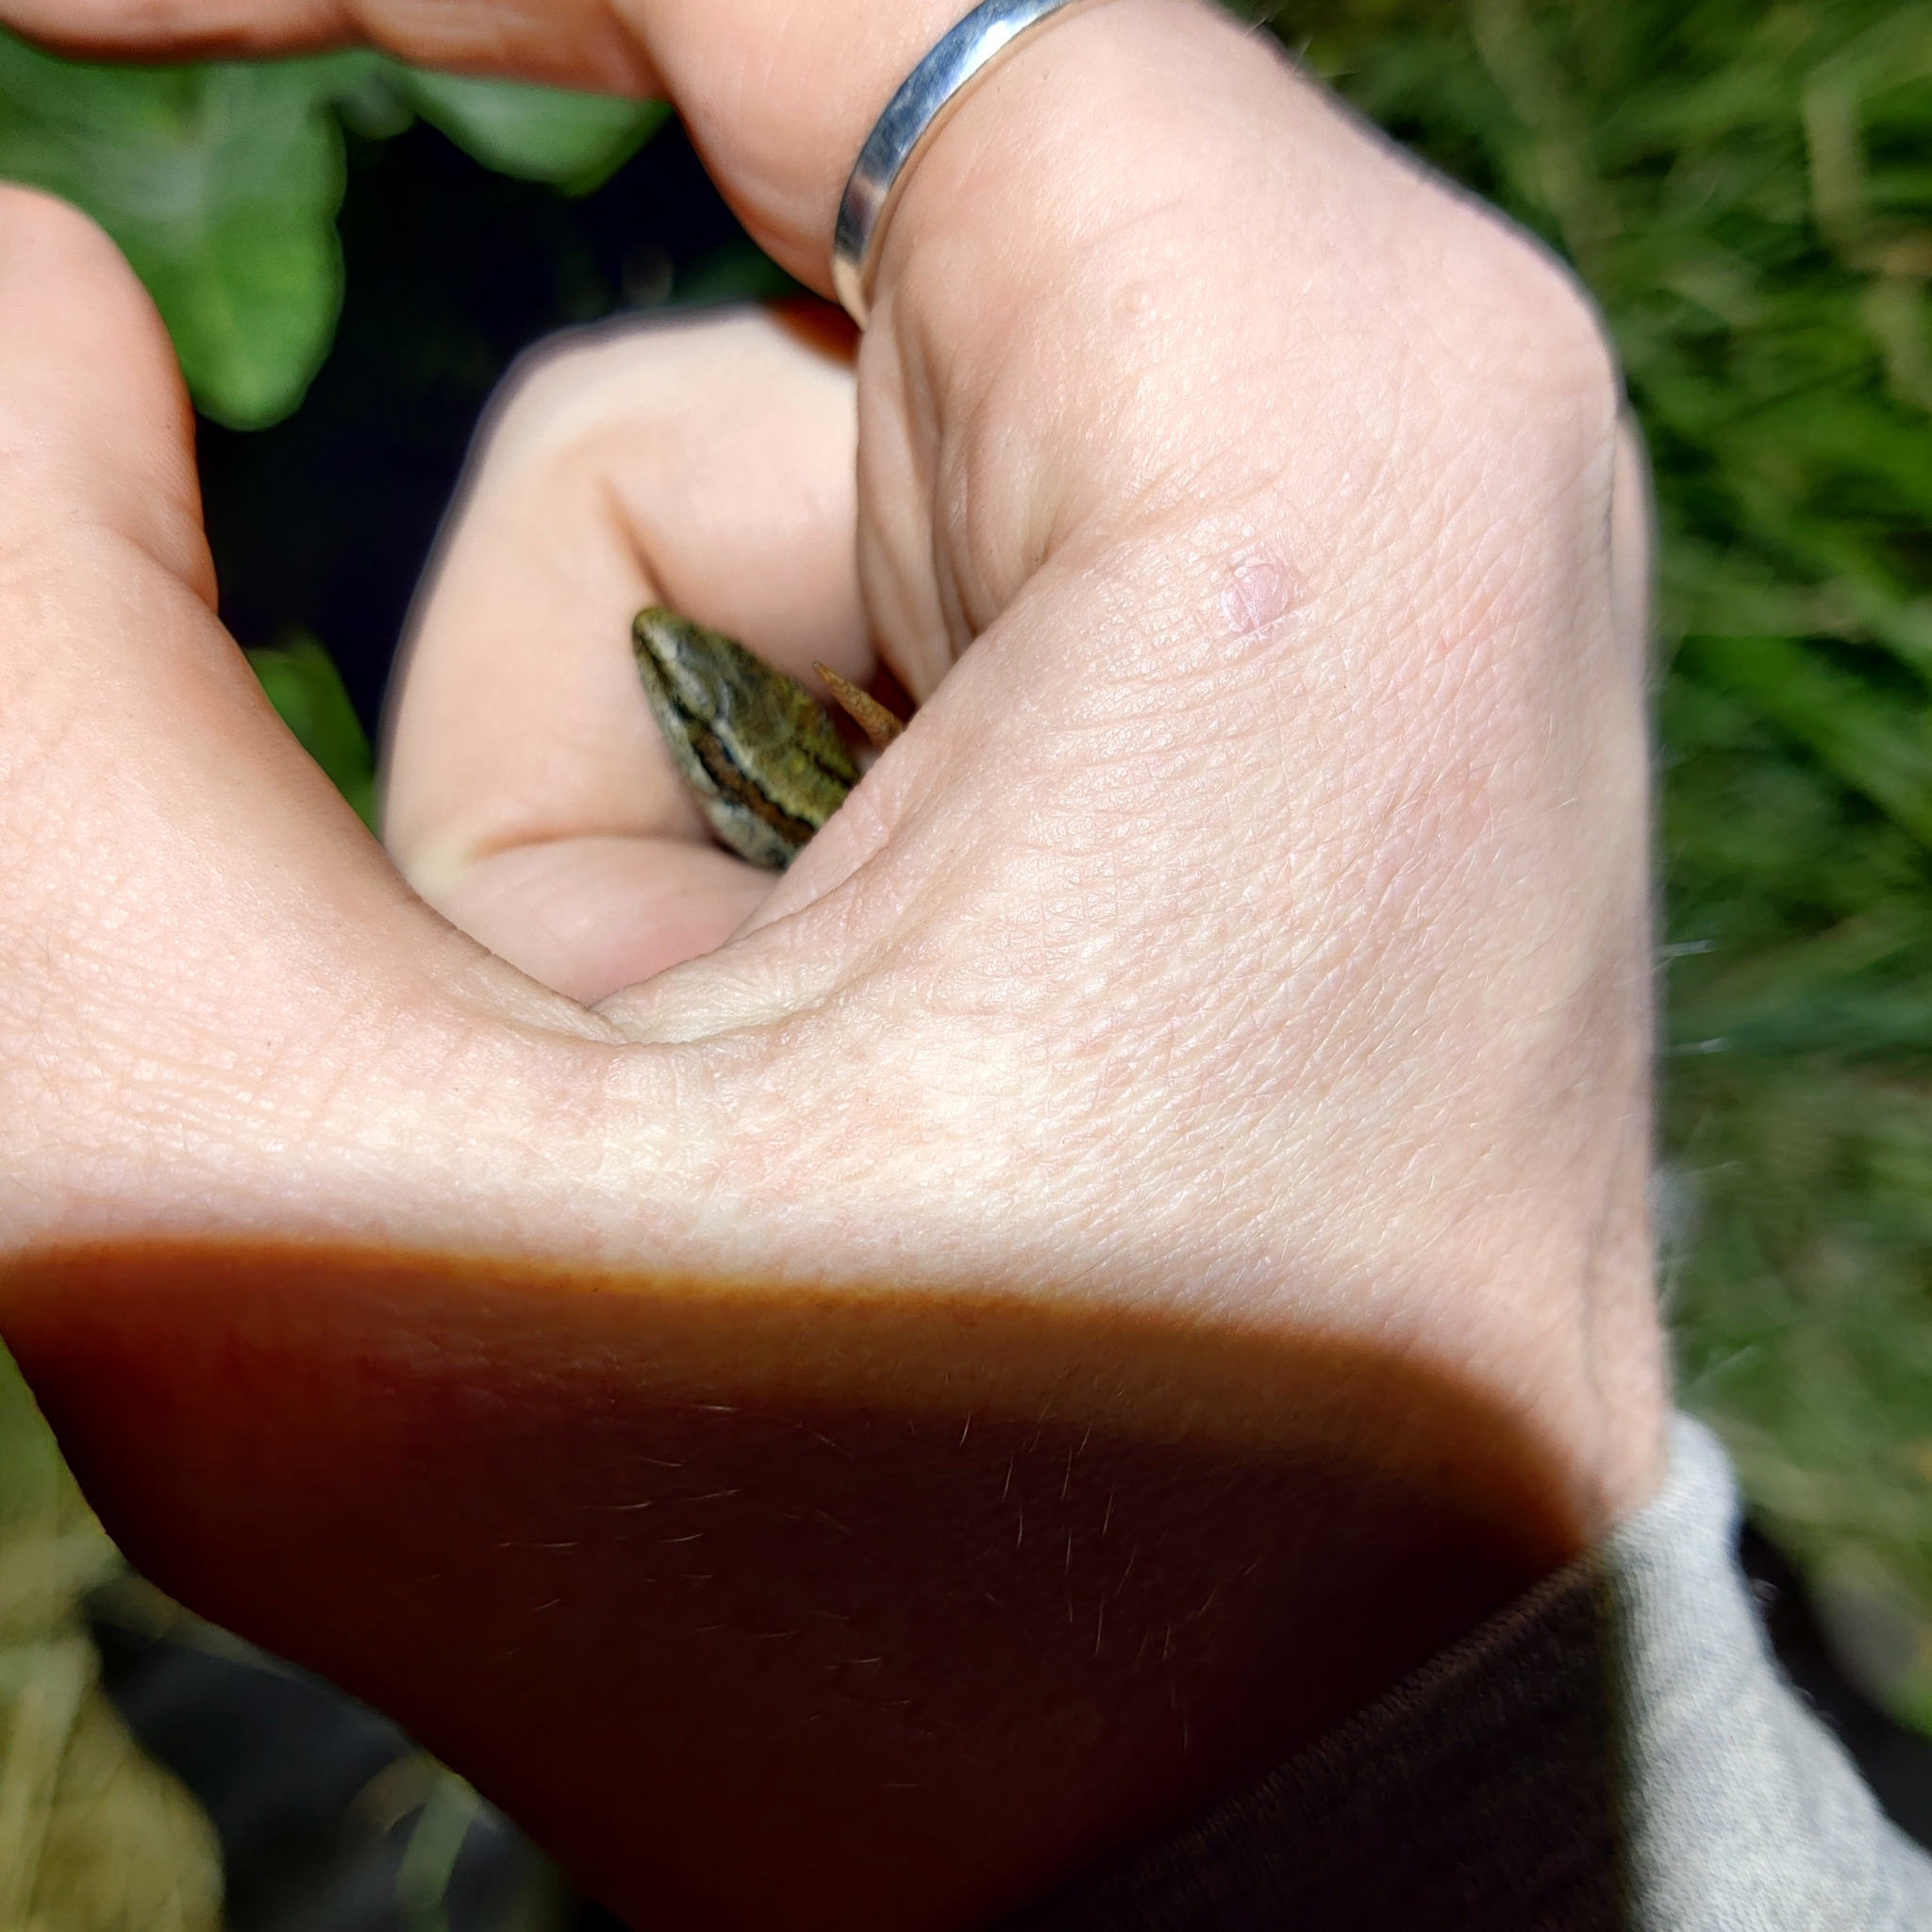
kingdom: Animalia
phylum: Chordata
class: Squamata
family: Scincidae
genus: Oligosoma
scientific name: Oligosoma polychroma
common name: Common new zealand skink
